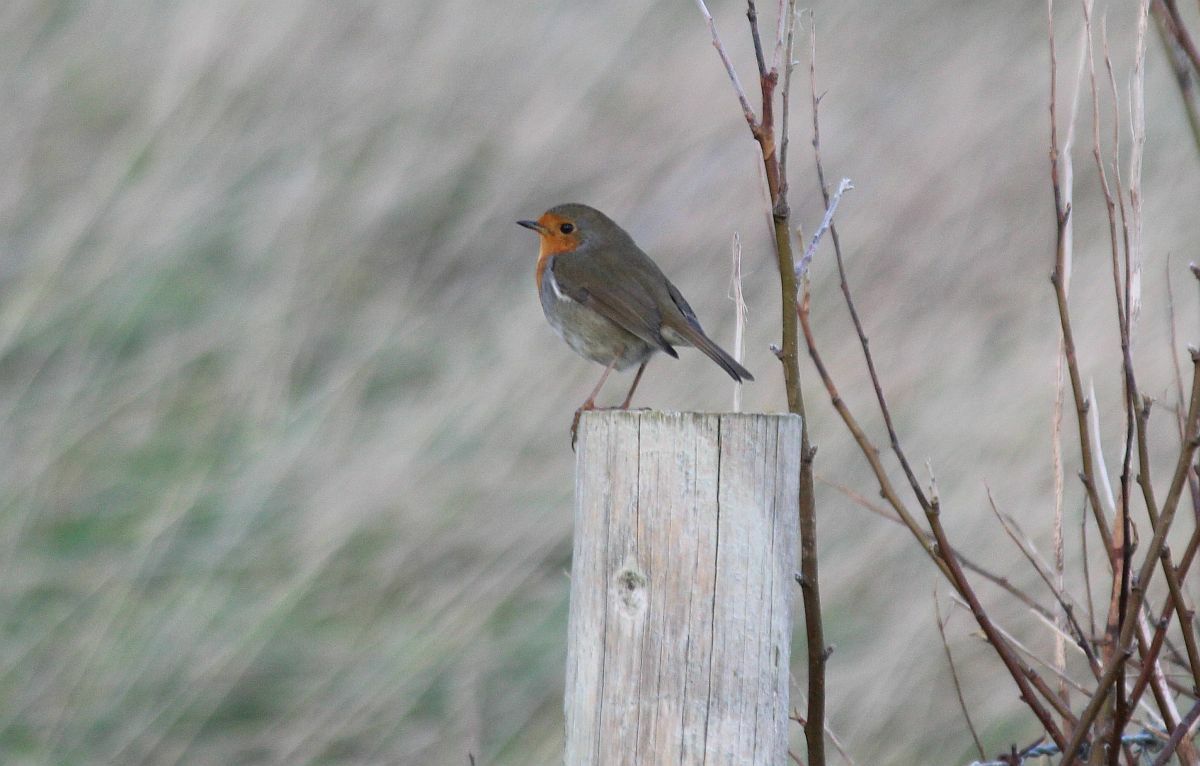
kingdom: Animalia
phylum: Chordata
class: Aves
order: Passeriformes
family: Muscicapidae
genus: Erithacus
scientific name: Erithacus rubecula
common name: European robin
